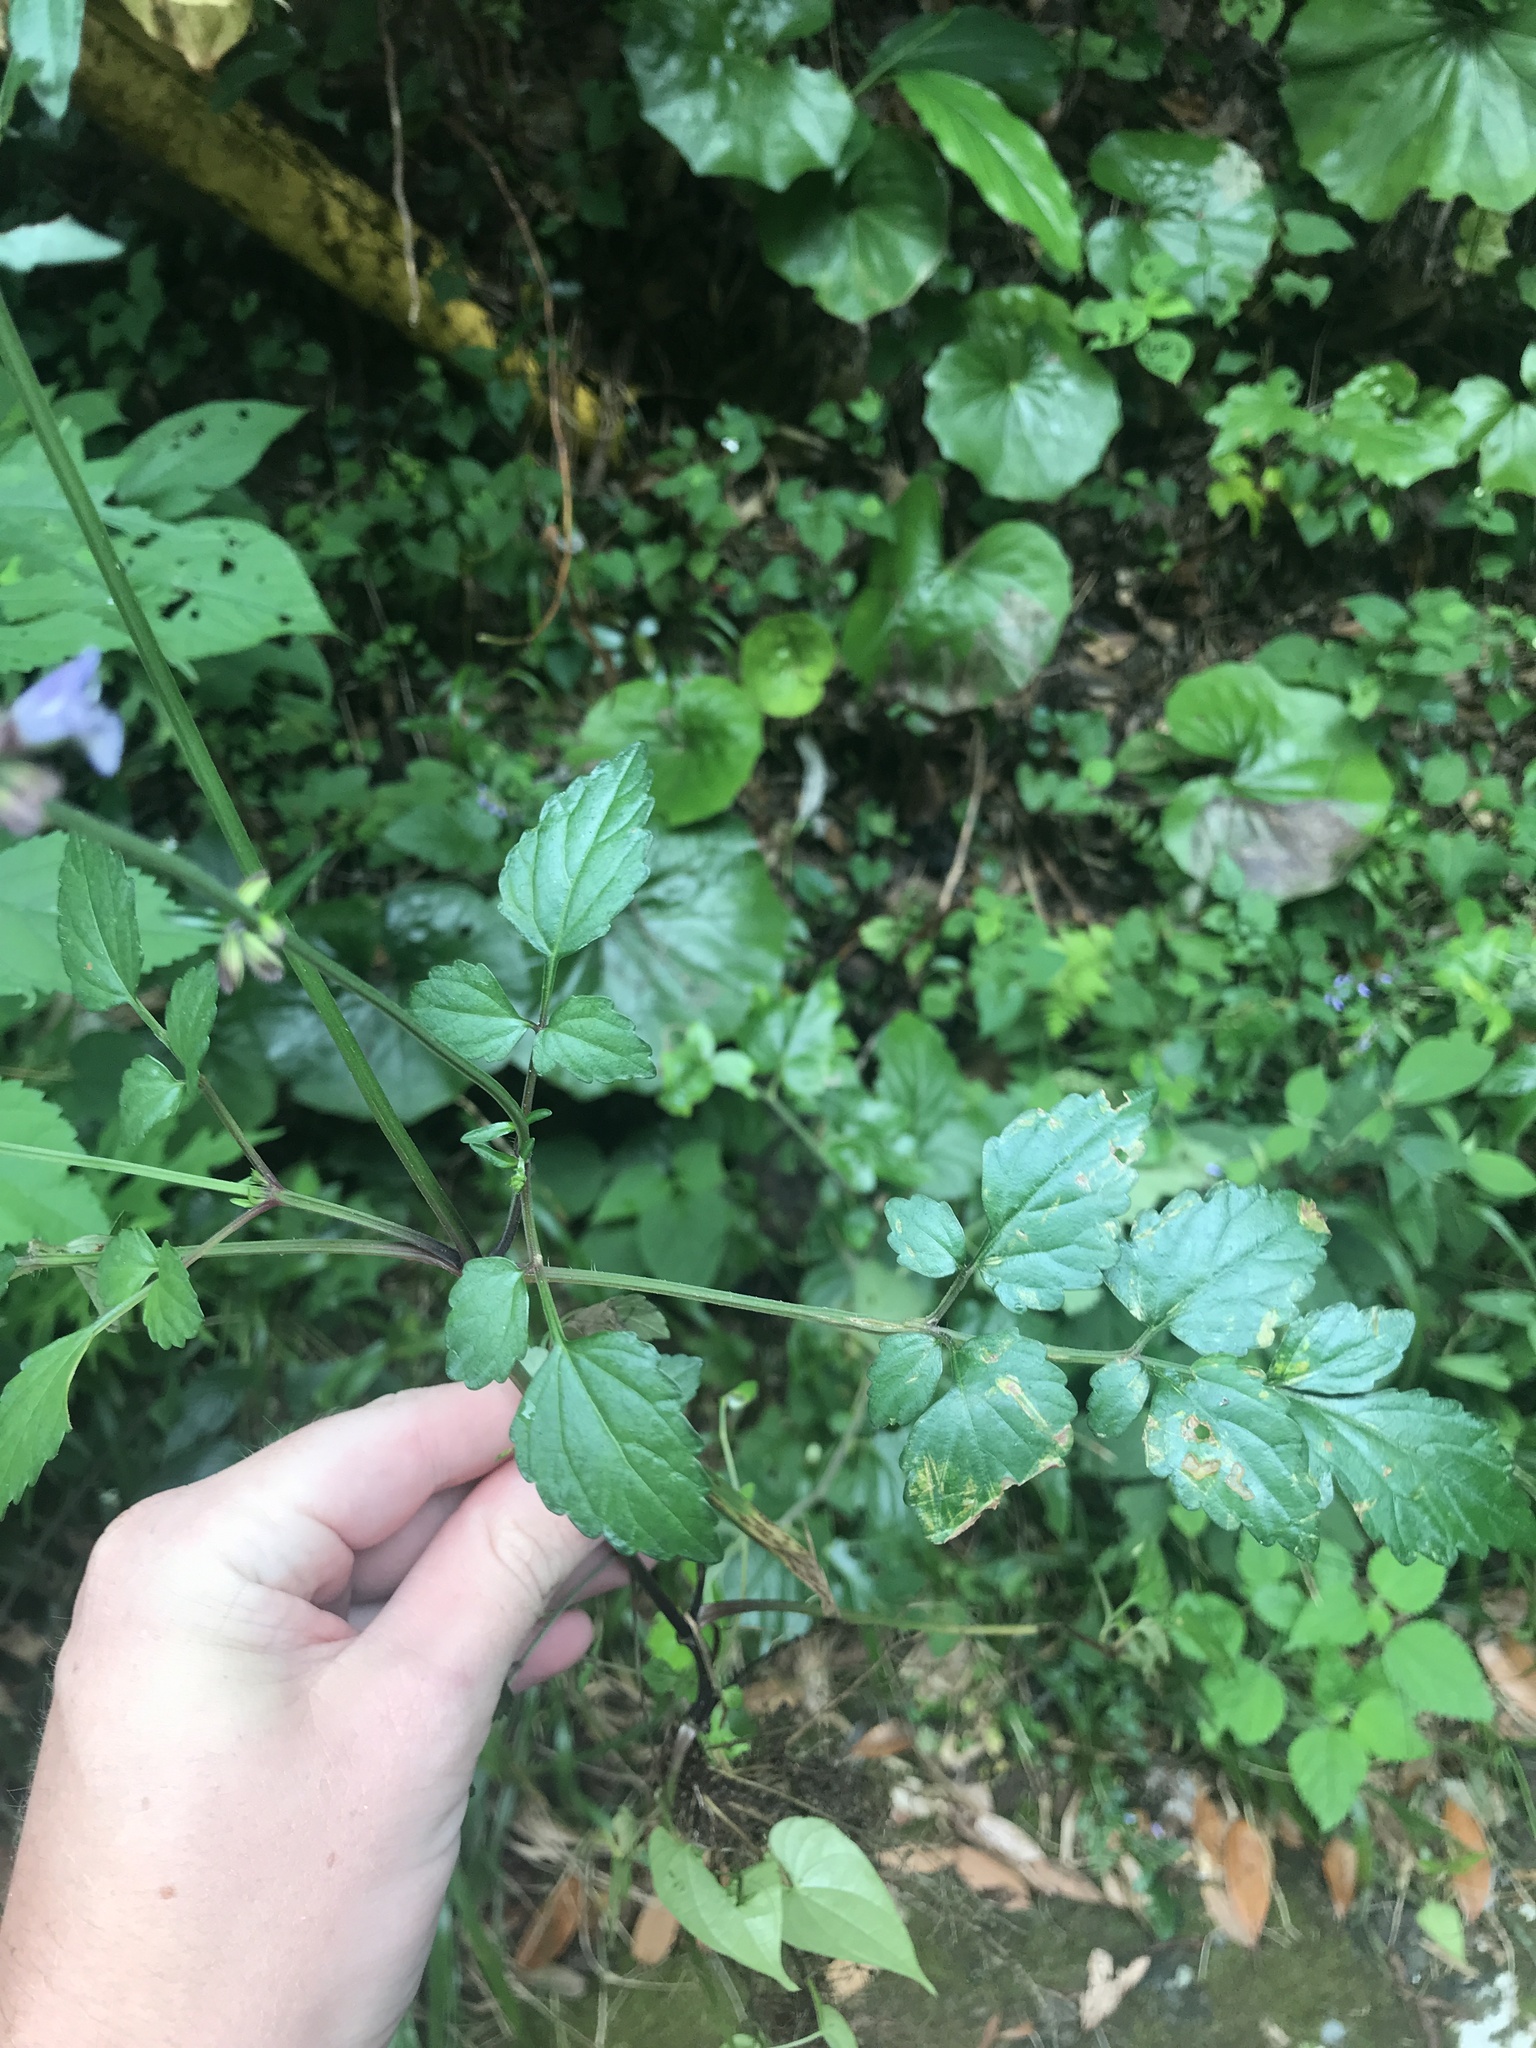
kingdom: Plantae
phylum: Tracheophyta
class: Magnoliopsida
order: Lamiales
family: Lamiaceae
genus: Salvia
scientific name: Salvia japonica
